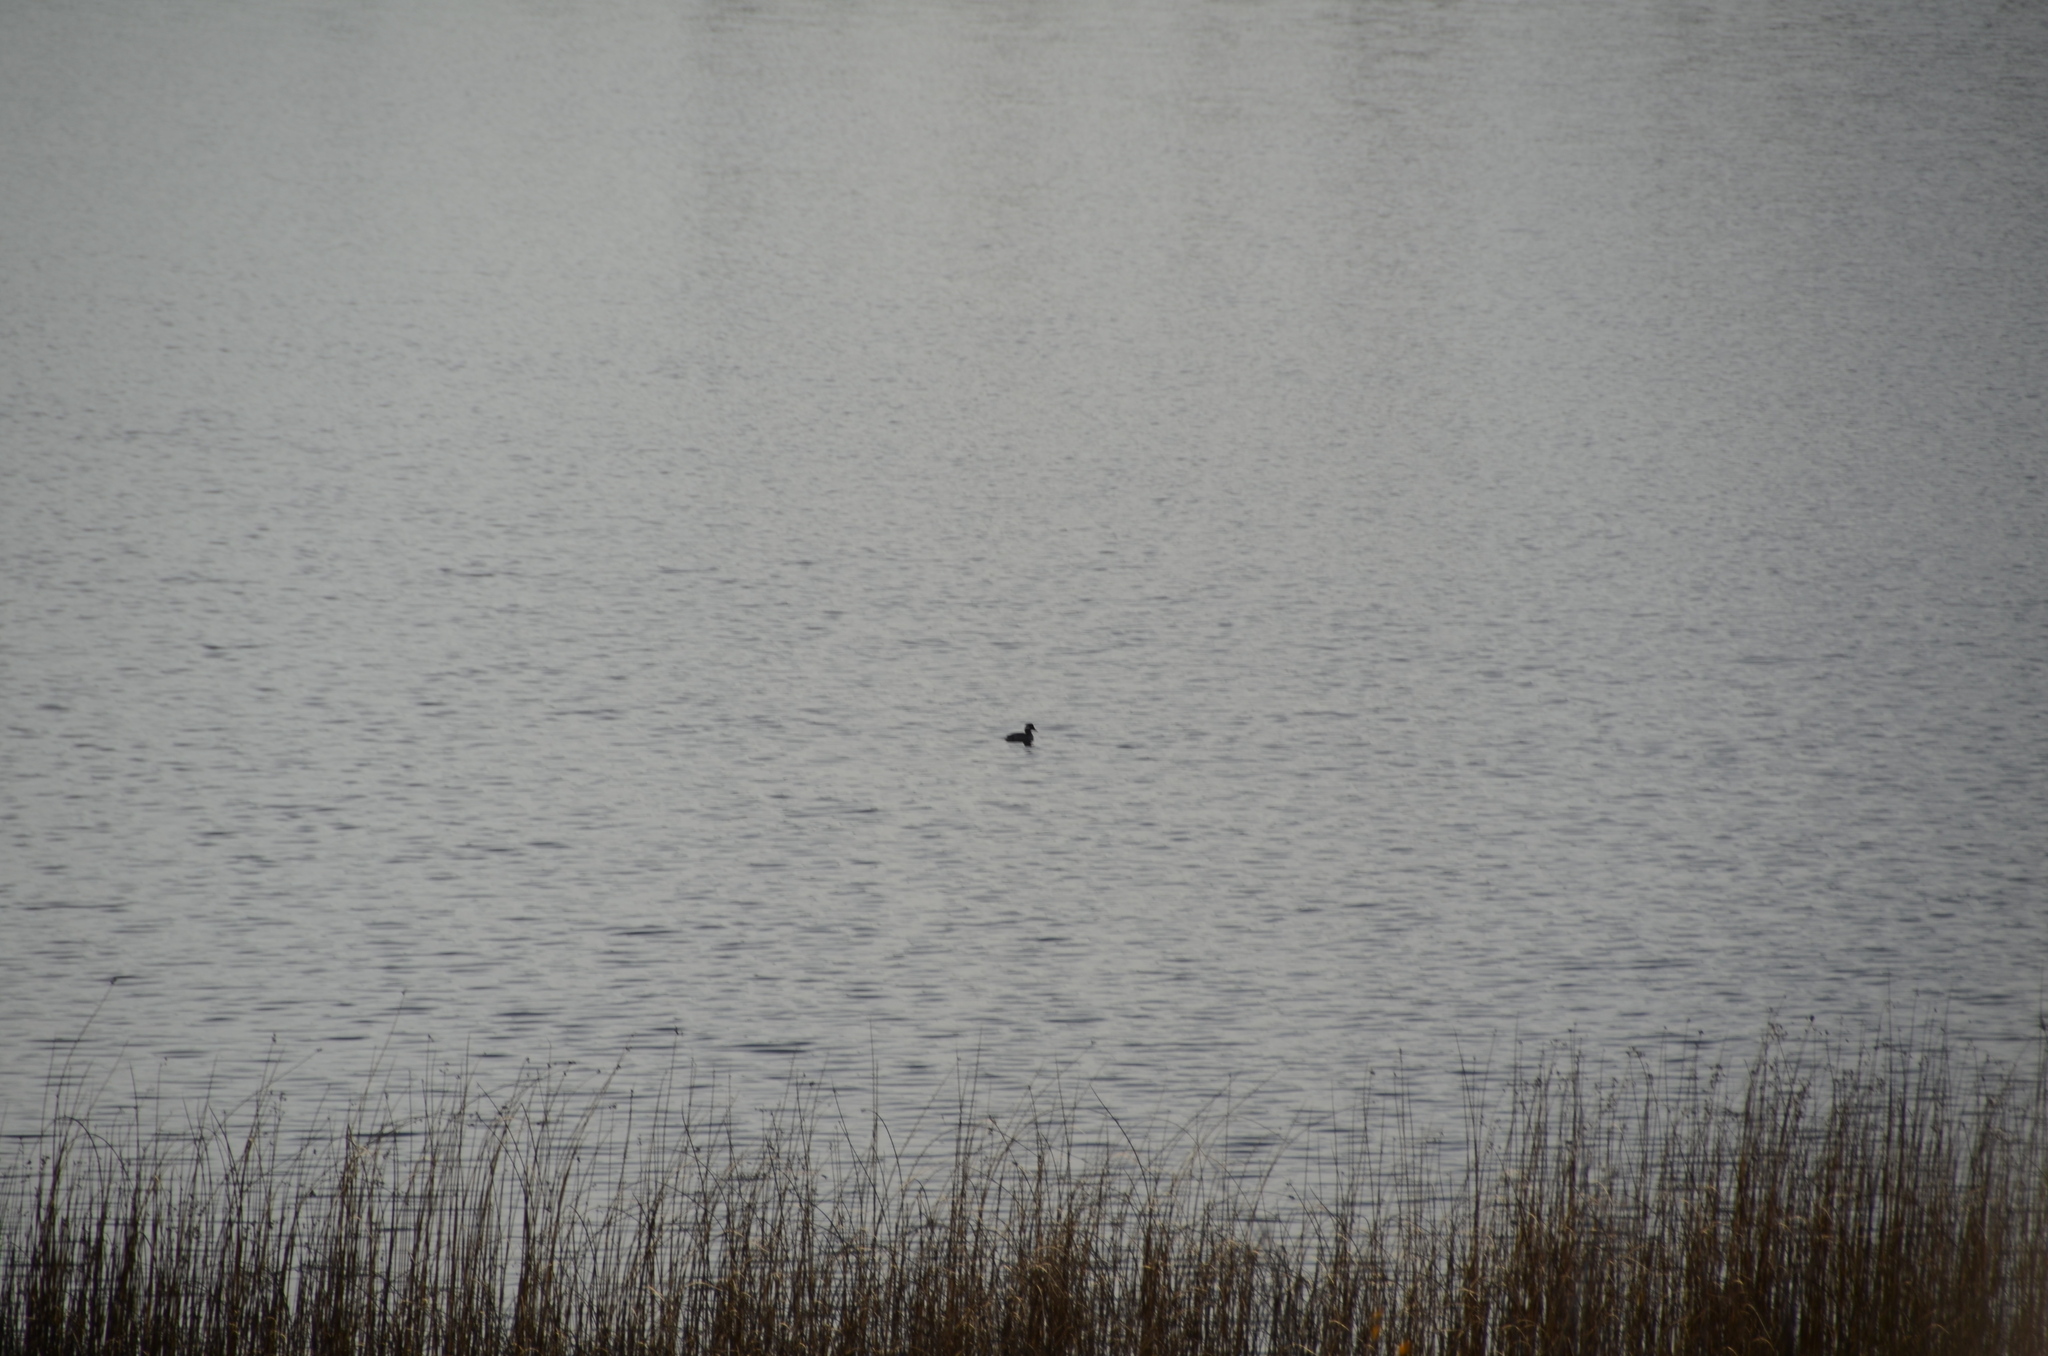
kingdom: Animalia
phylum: Chordata
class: Aves
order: Anseriformes
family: Anatidae
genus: Bucephala
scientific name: Bucephala albeola
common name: Bufflehead
